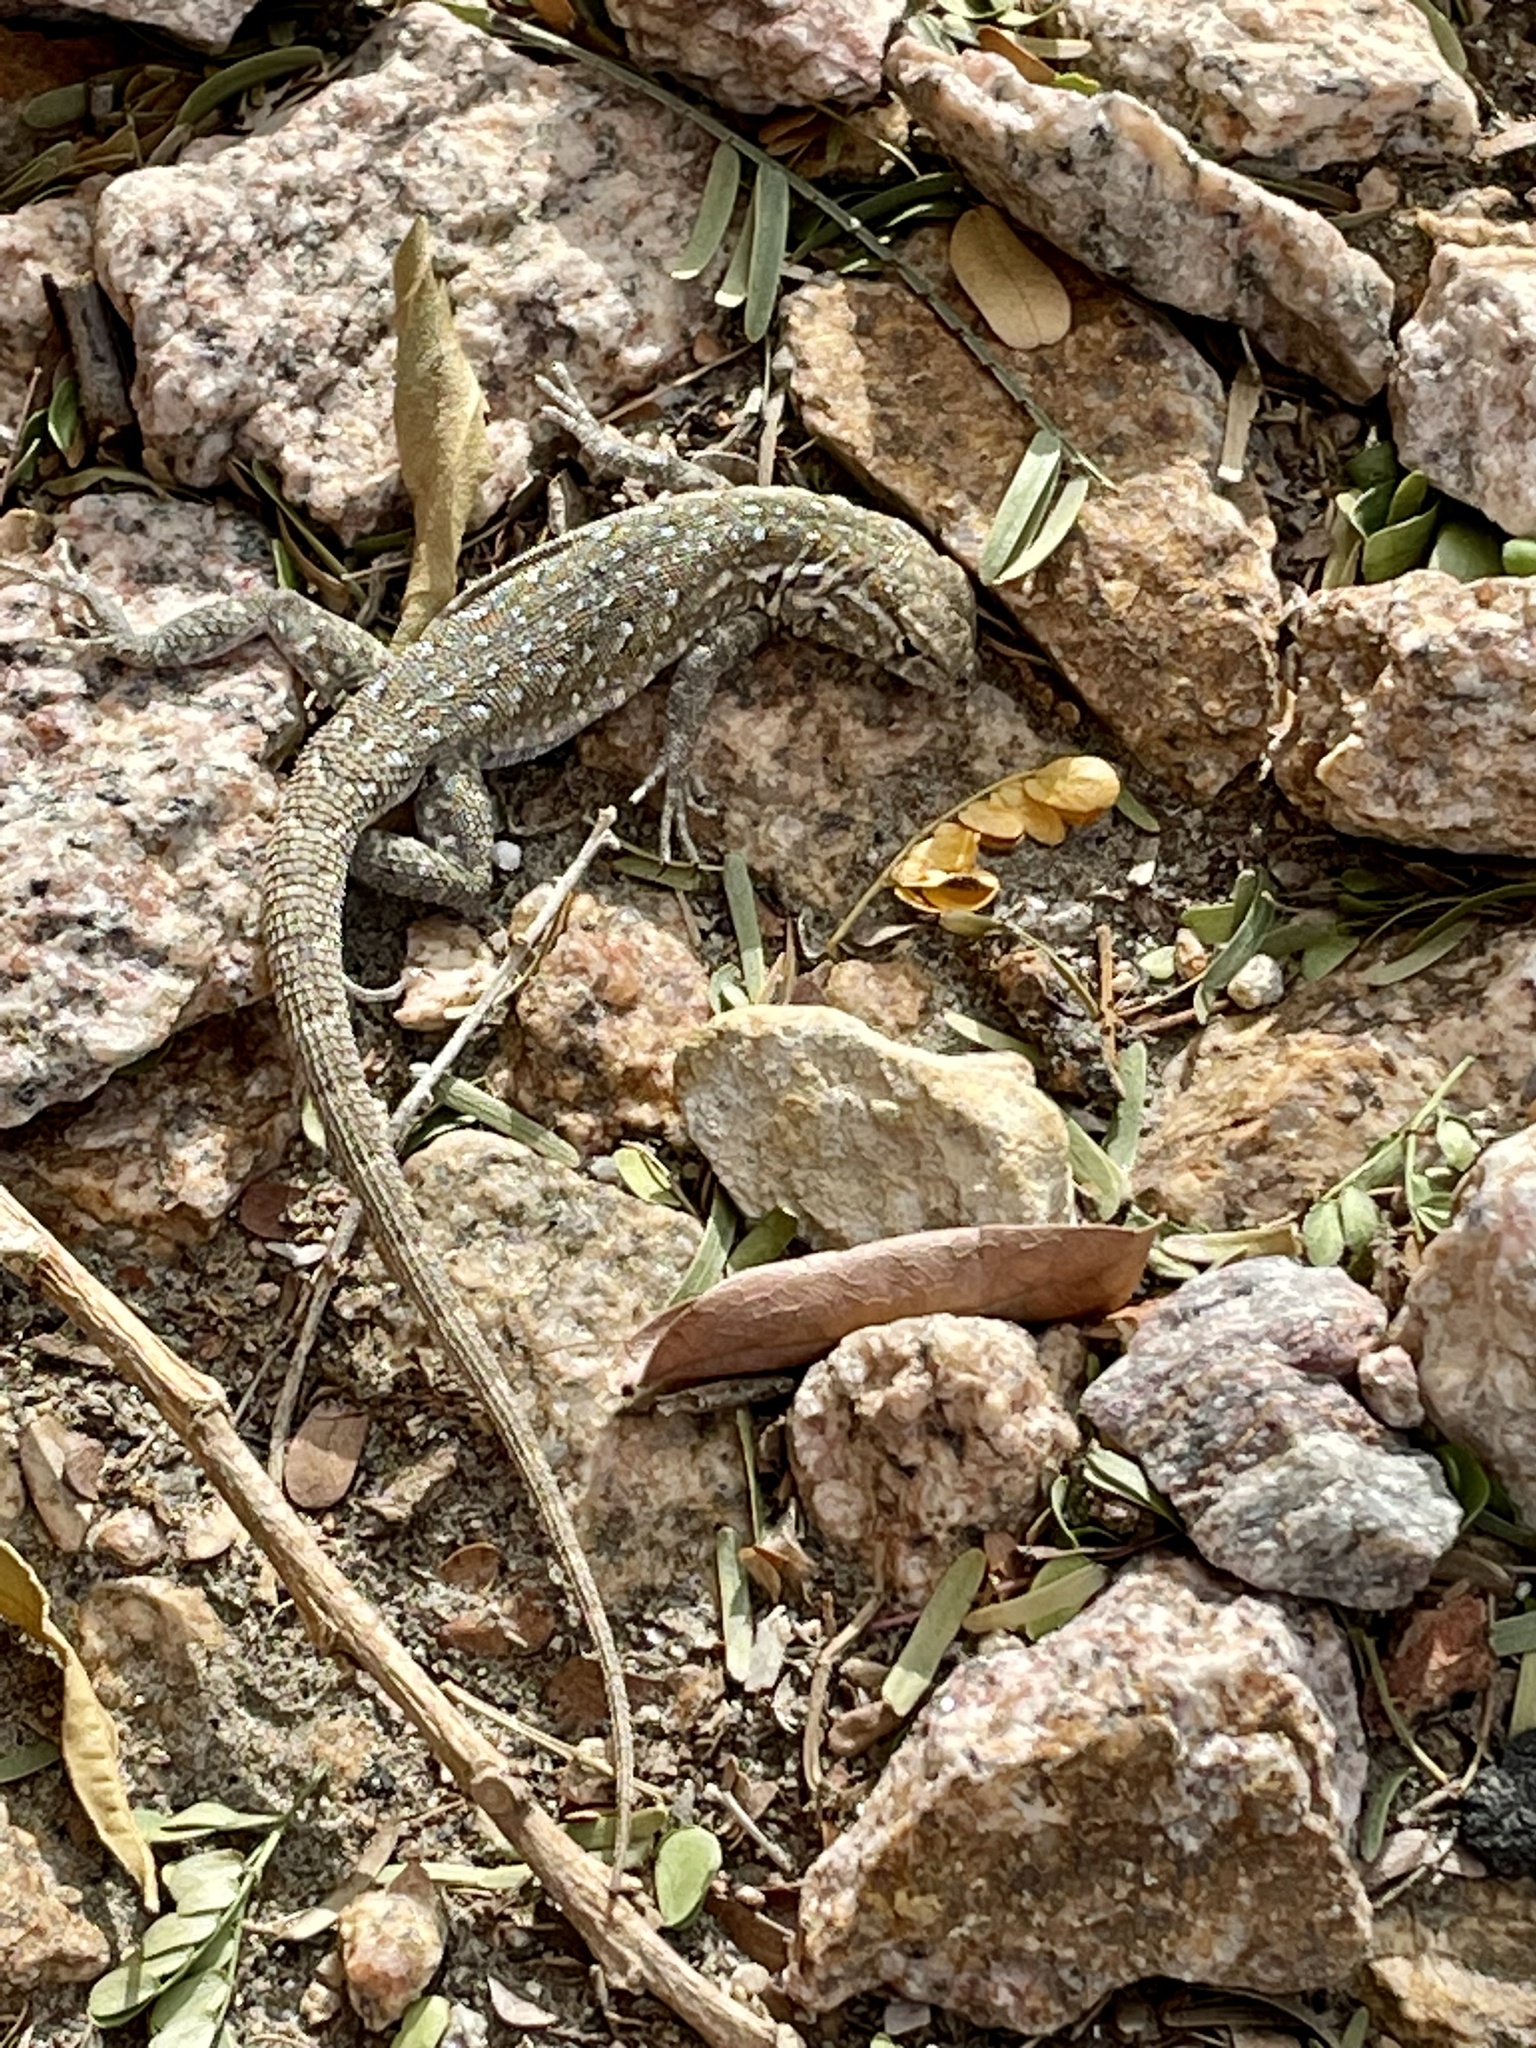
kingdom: Animalia
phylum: Chordata
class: Squamata
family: Phrynosomatidae
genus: Uta
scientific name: Uta stansburiana
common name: Side-blotched lizard
